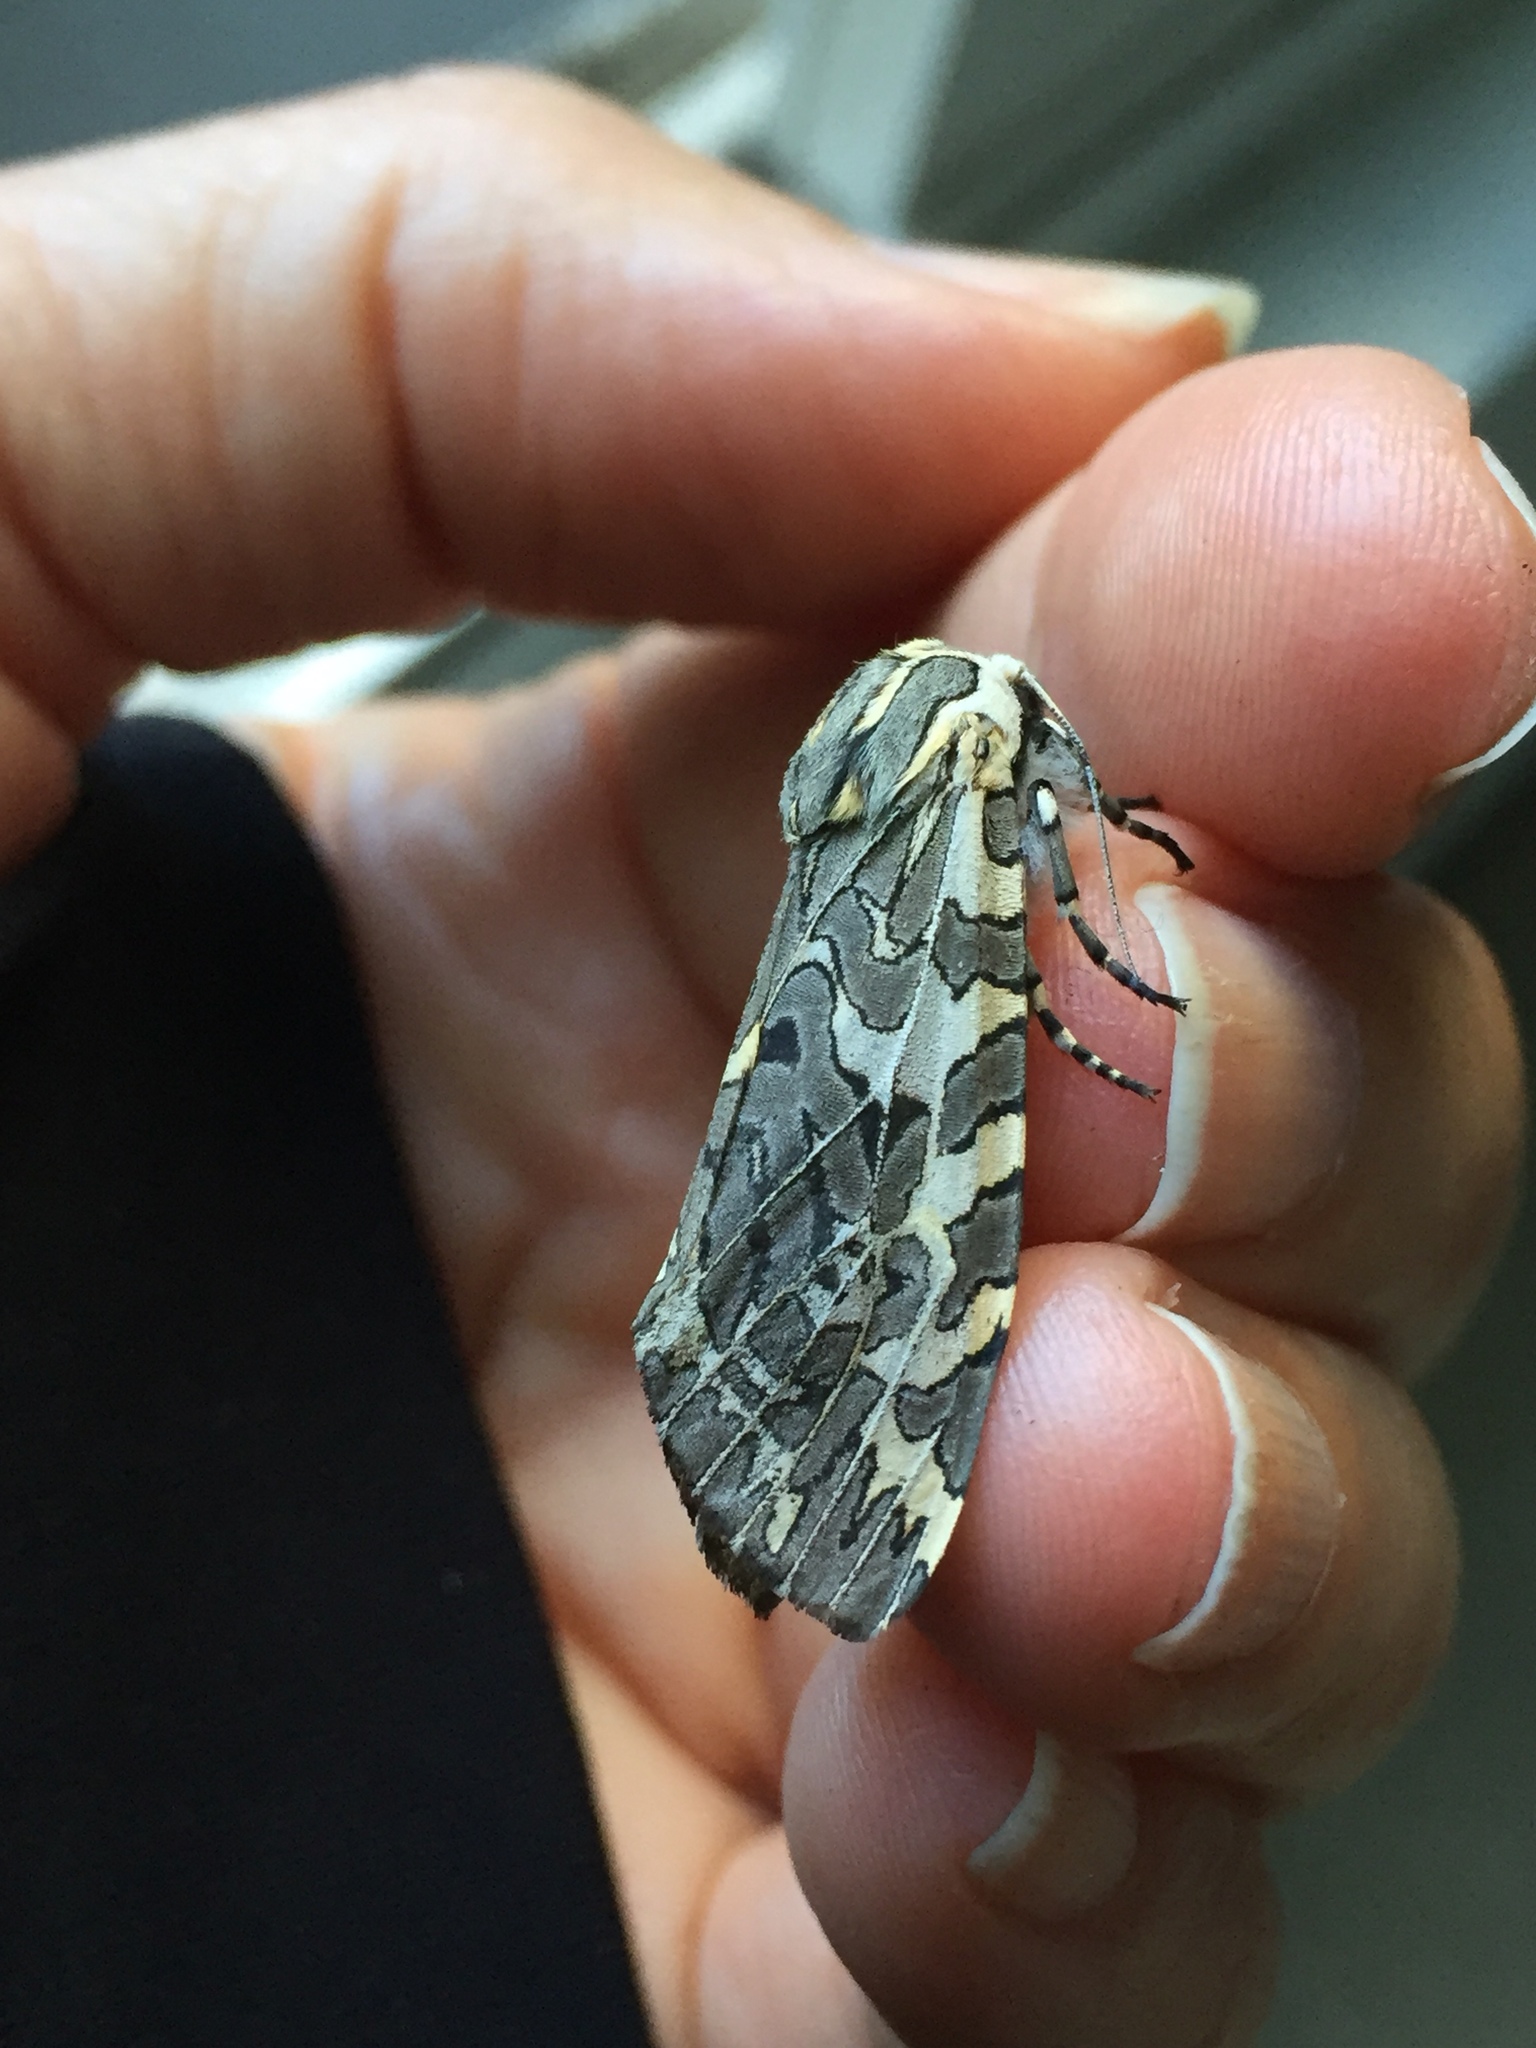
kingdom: Animalia
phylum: Arthropoda
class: Insecta
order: Lepidoptera
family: Erebidae
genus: Arachnis
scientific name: Arachnis picta
